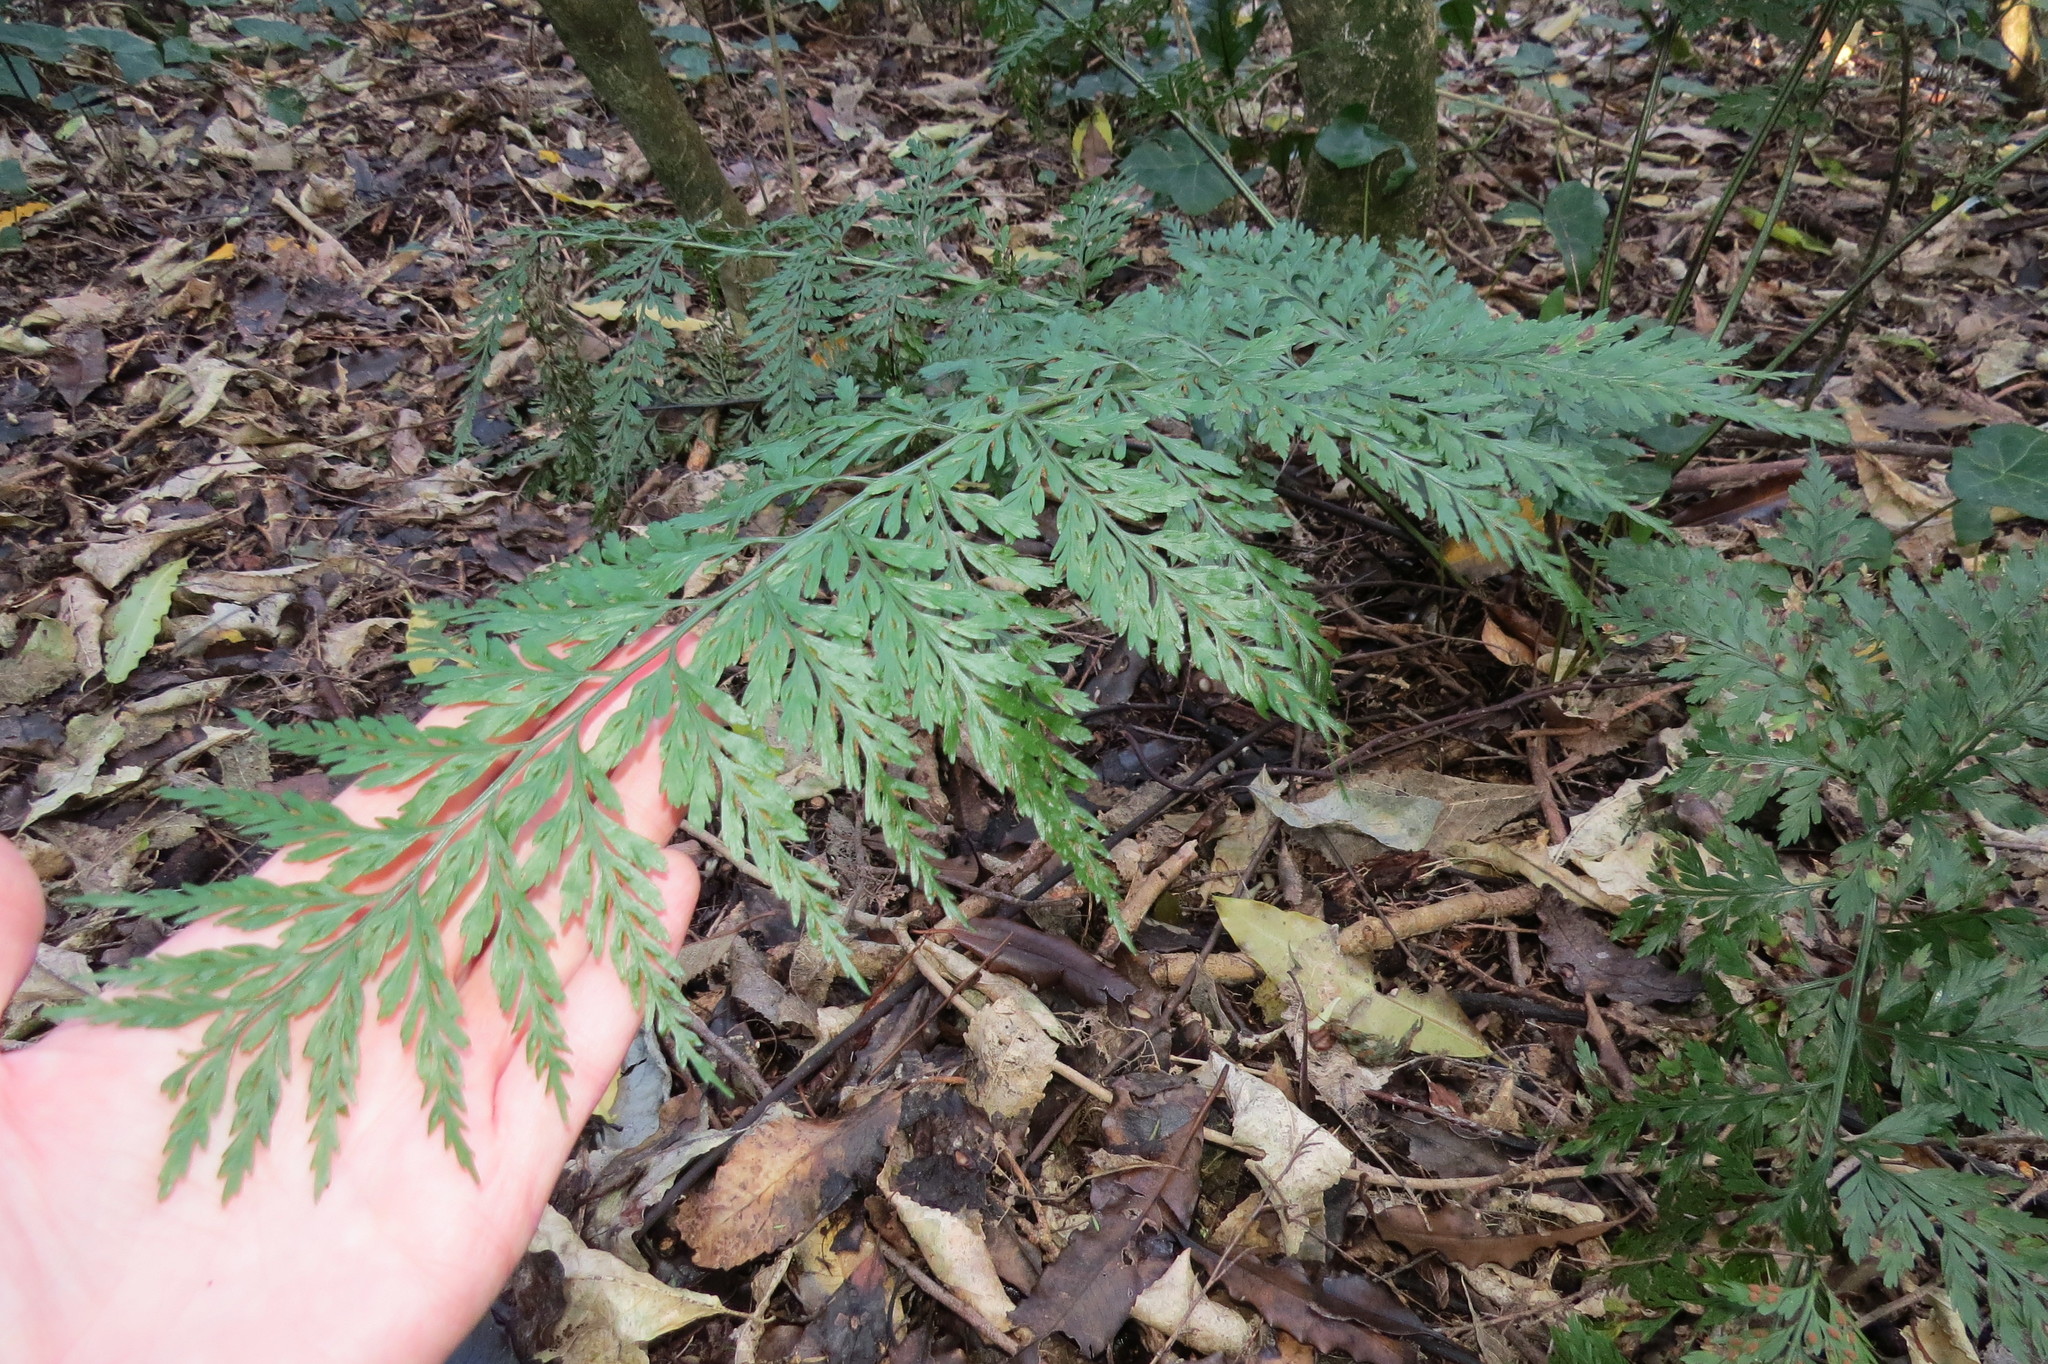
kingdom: Plantae
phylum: Tracheophyta
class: Polypodiopsida
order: Polypodiales
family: Aspleniaceae
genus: Asplenium
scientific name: Asplenium
